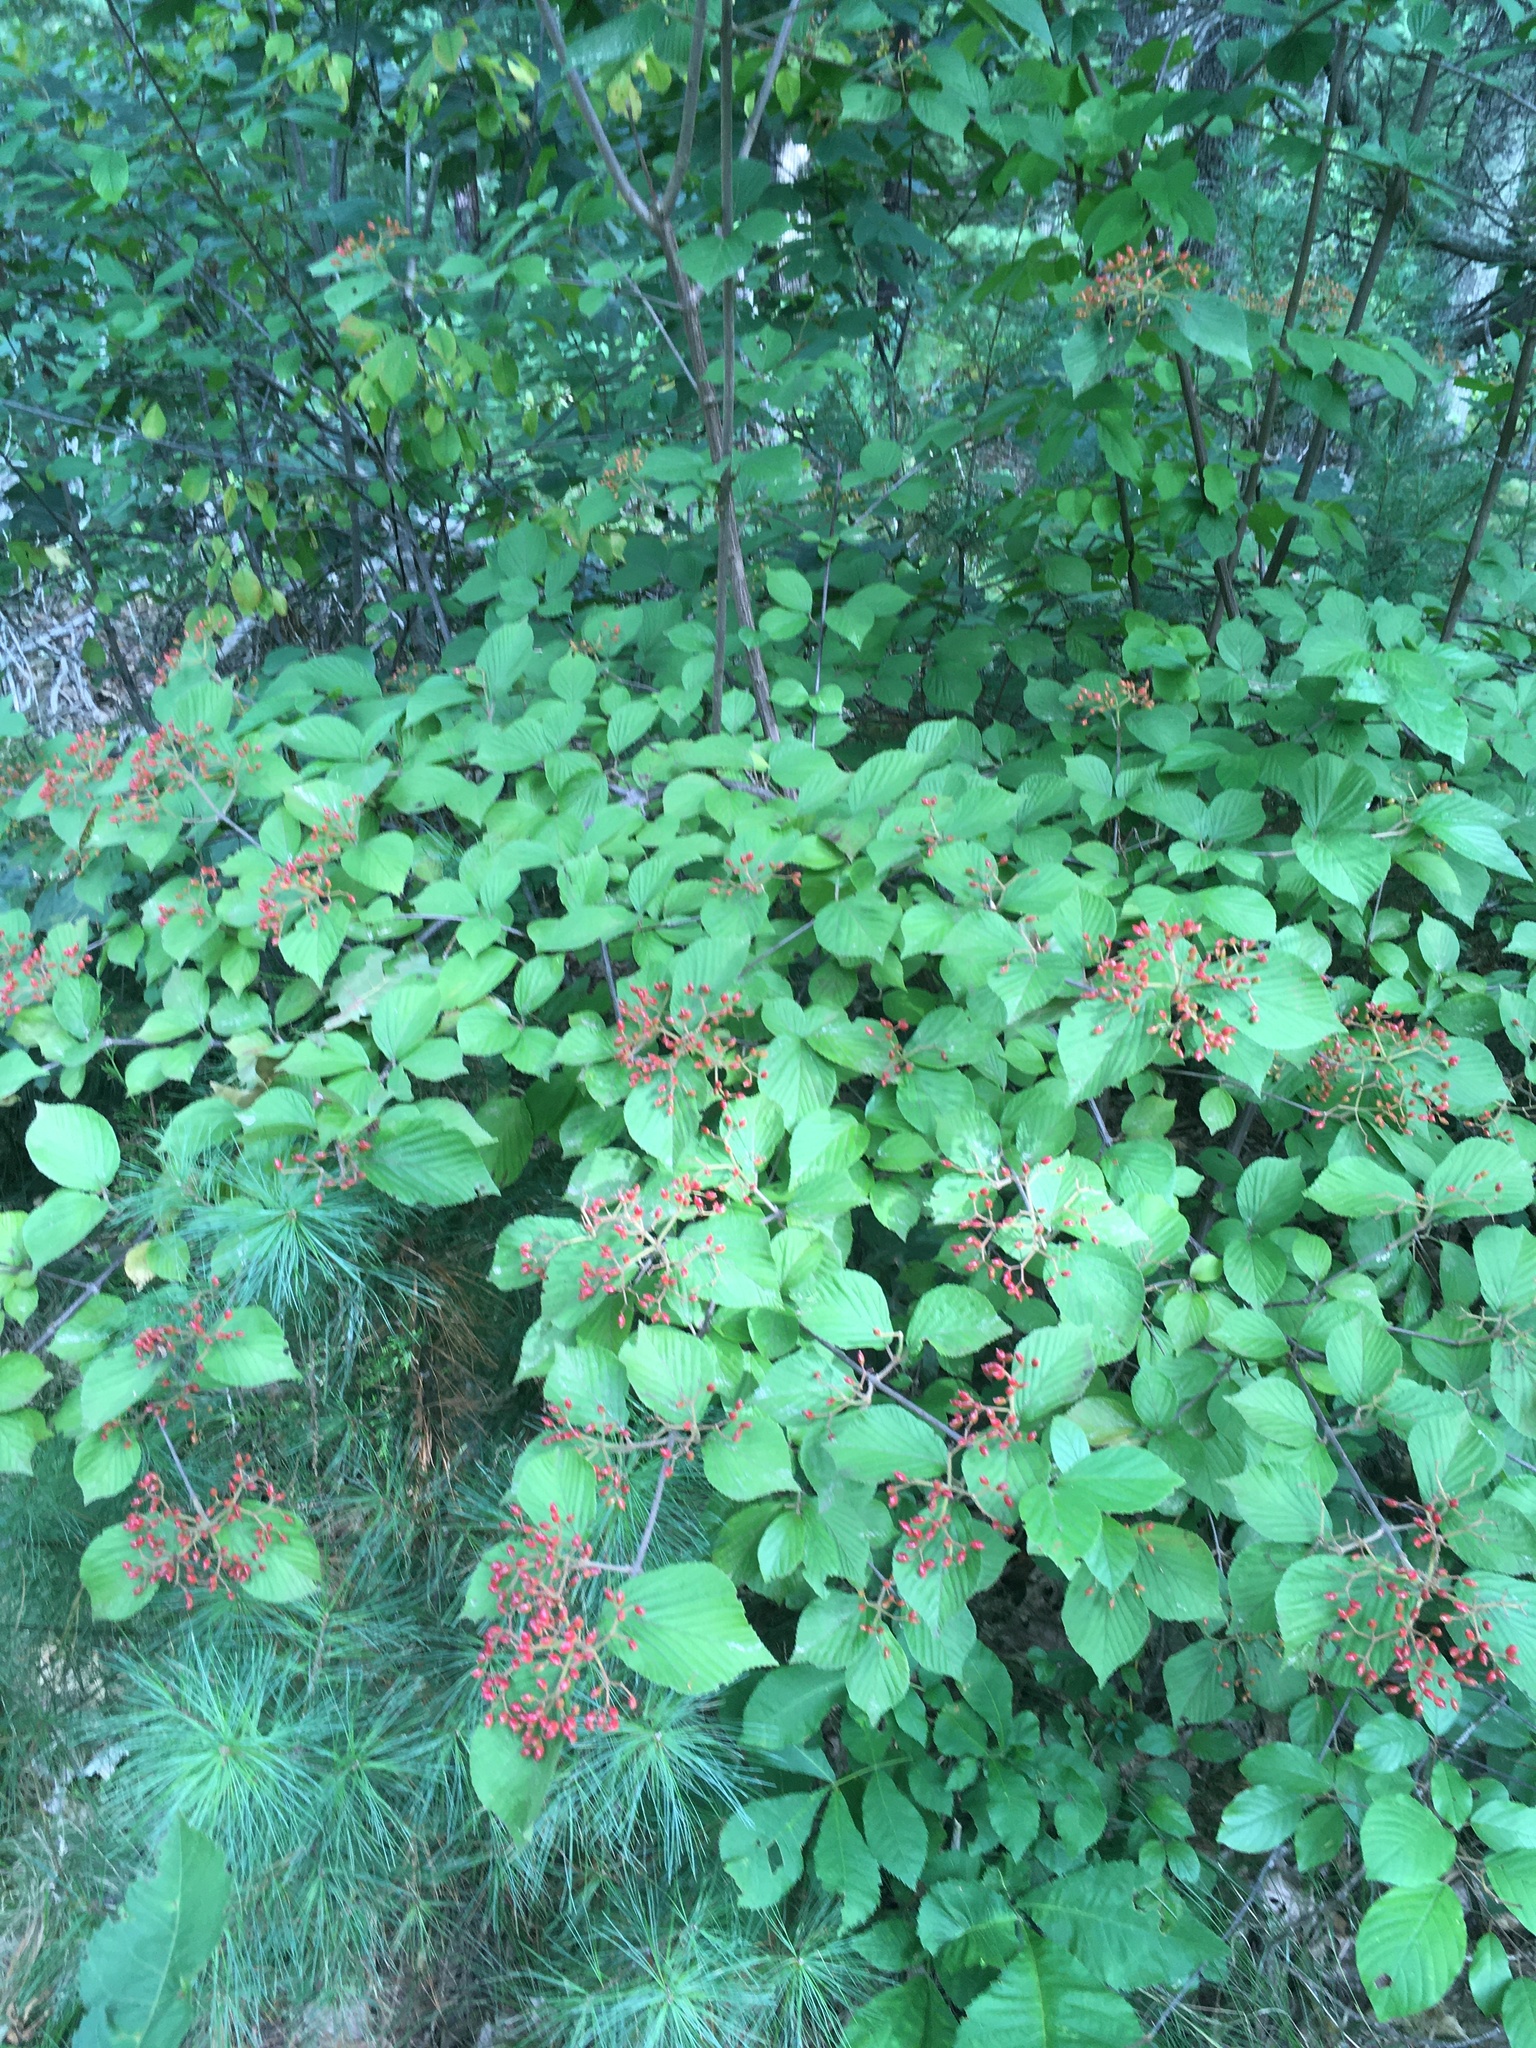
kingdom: Plantae
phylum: Tracheophyta
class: Magnoliopsida
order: Dipsacales
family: Viburnaceae
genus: Viburnum
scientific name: Viburnum dilatatum
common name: Linden arrowwood
